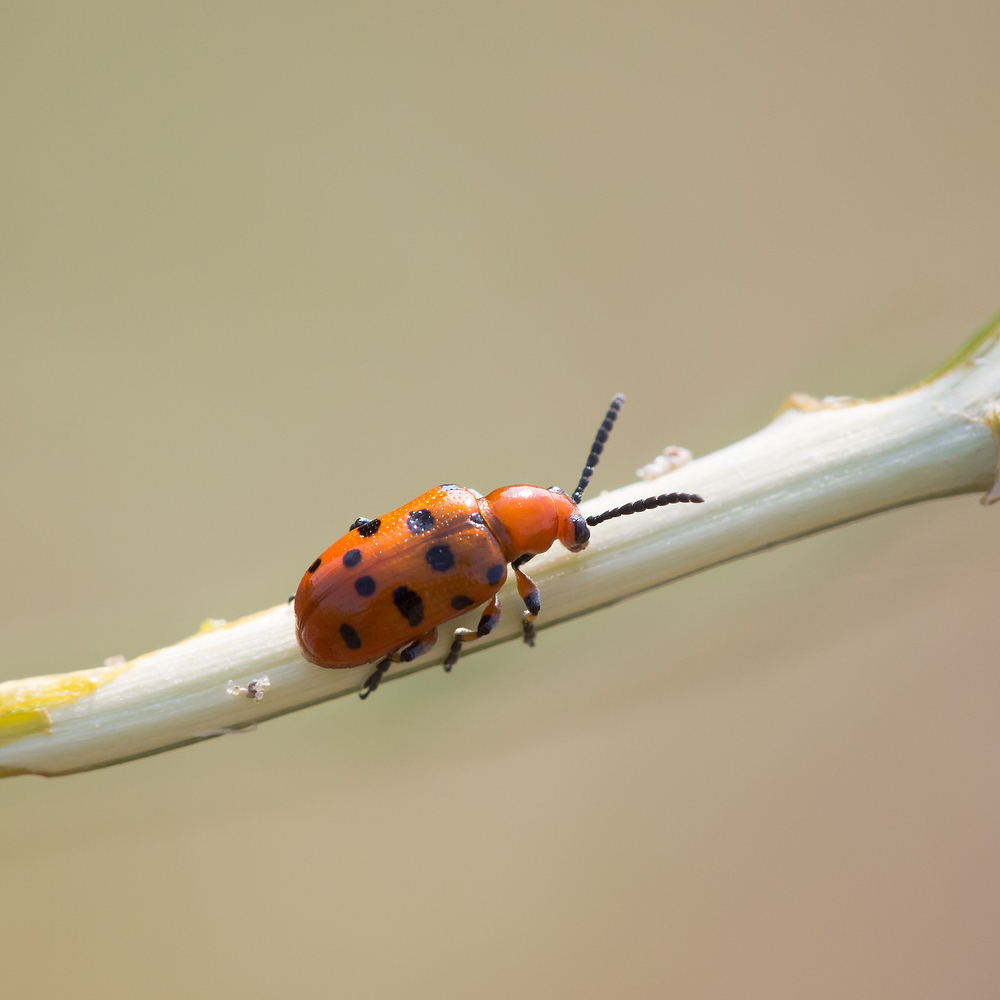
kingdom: Animalia
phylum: Arthropoda
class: Insecta
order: Coleoptera
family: Chrysomelidae
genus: Crioceris
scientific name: Crioceris duodecimpunctata
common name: Twelve-spotted asparagus beetle
